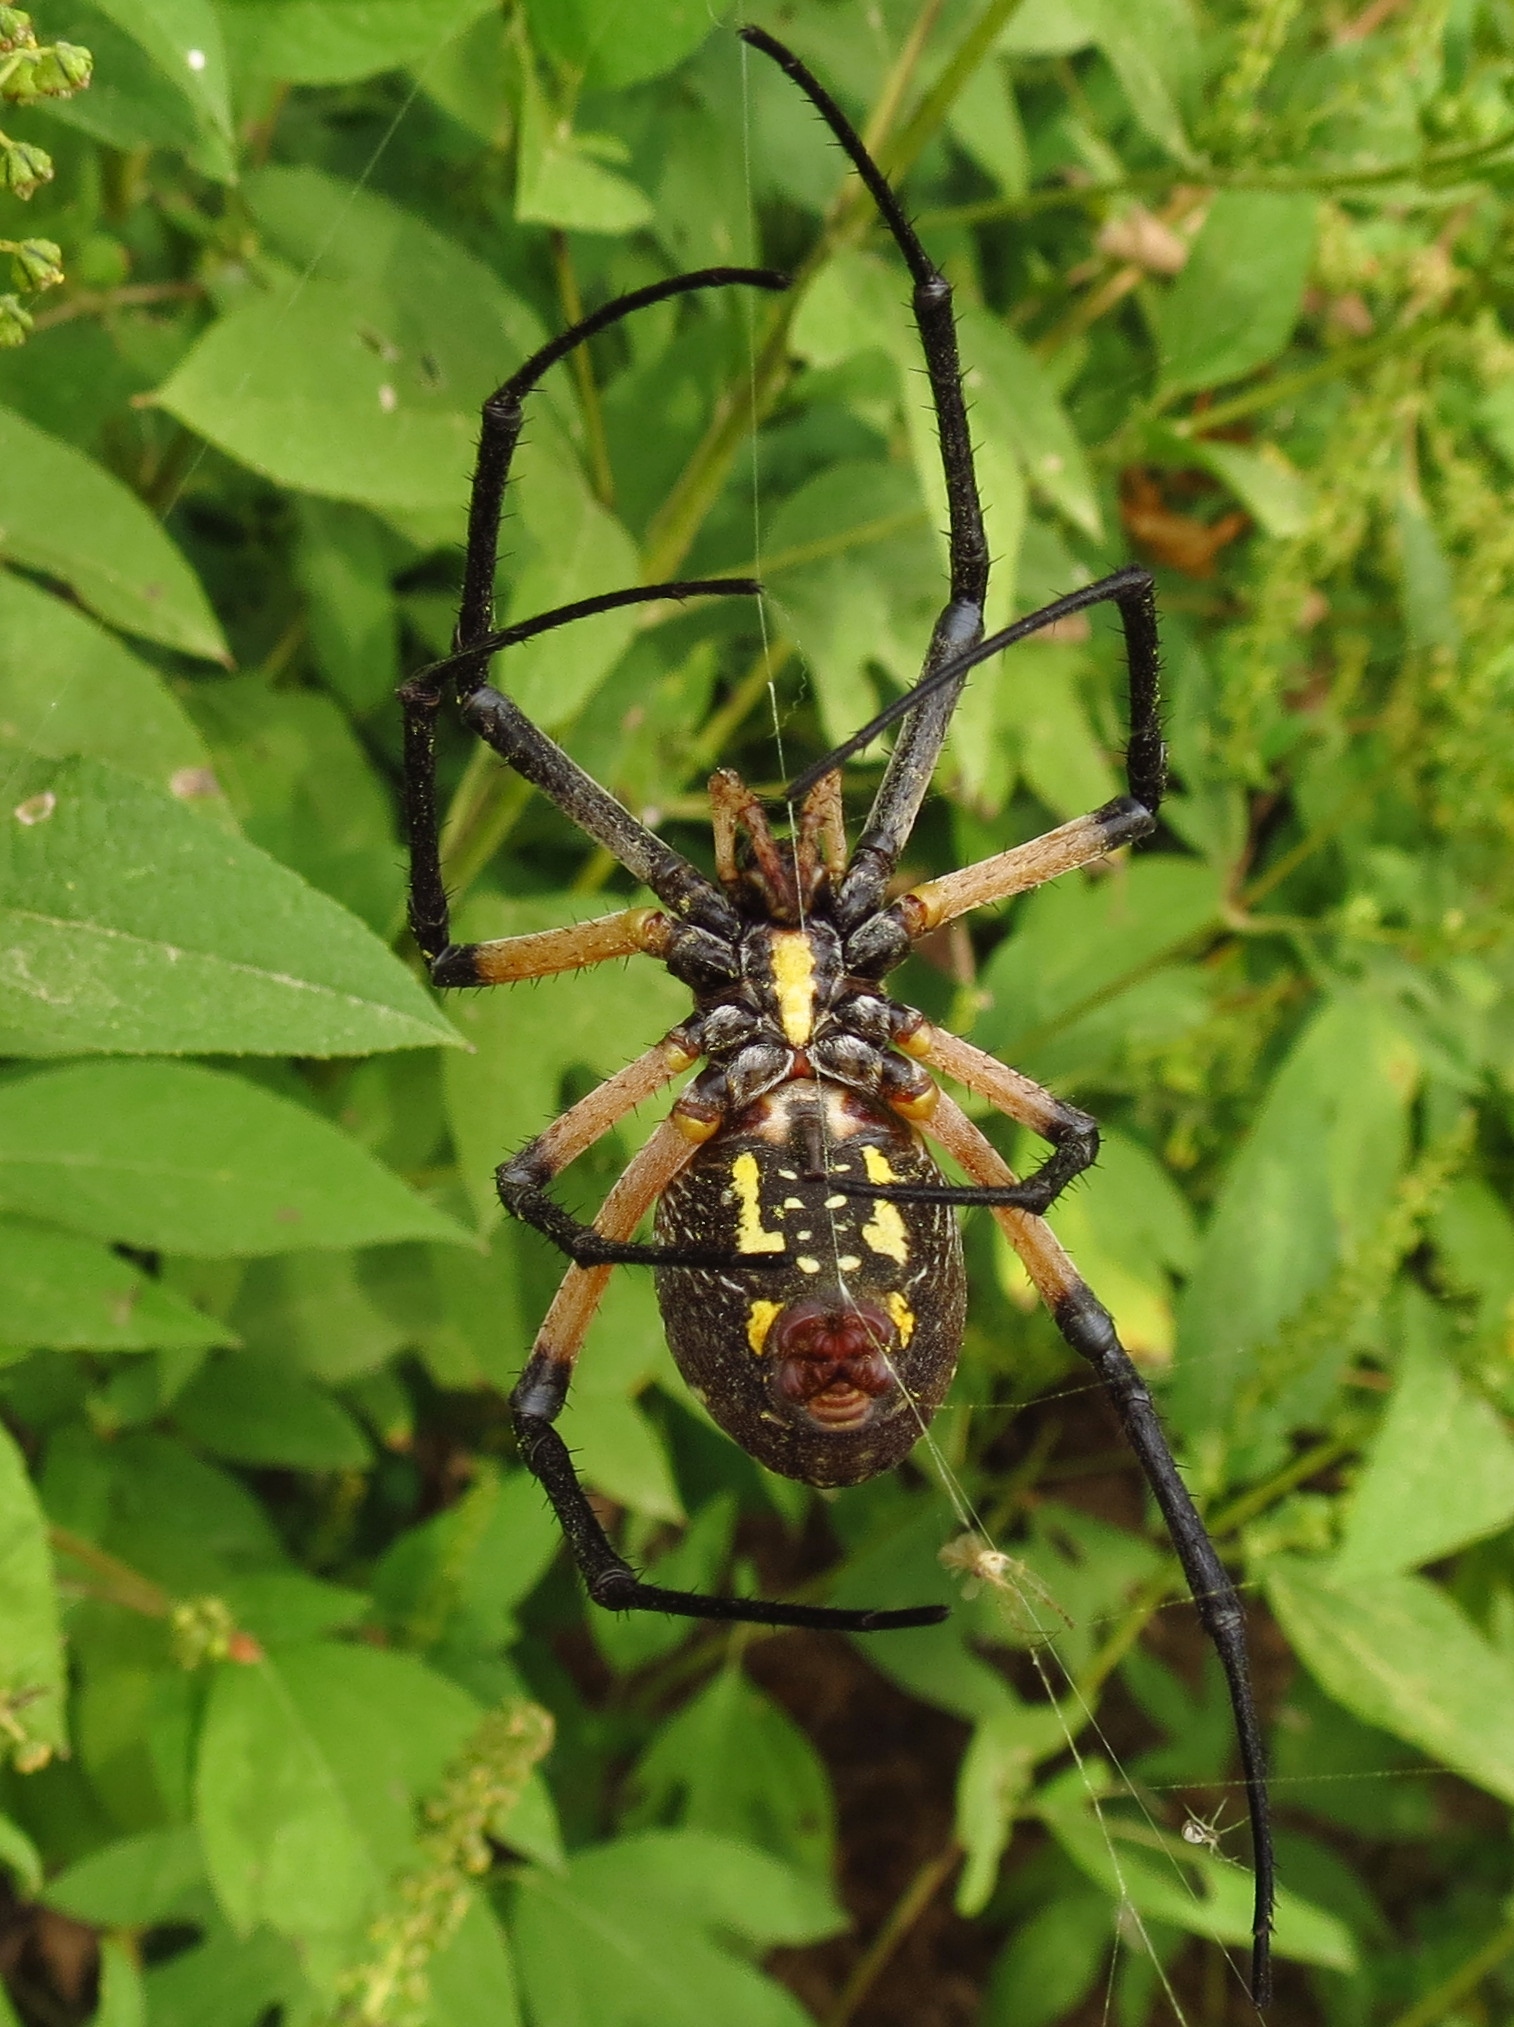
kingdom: Animalia
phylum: Arthropoda
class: Arachnida
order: Araneae
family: Araneidae
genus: Argiope
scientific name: Argiope aurantia
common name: Orb weavers
